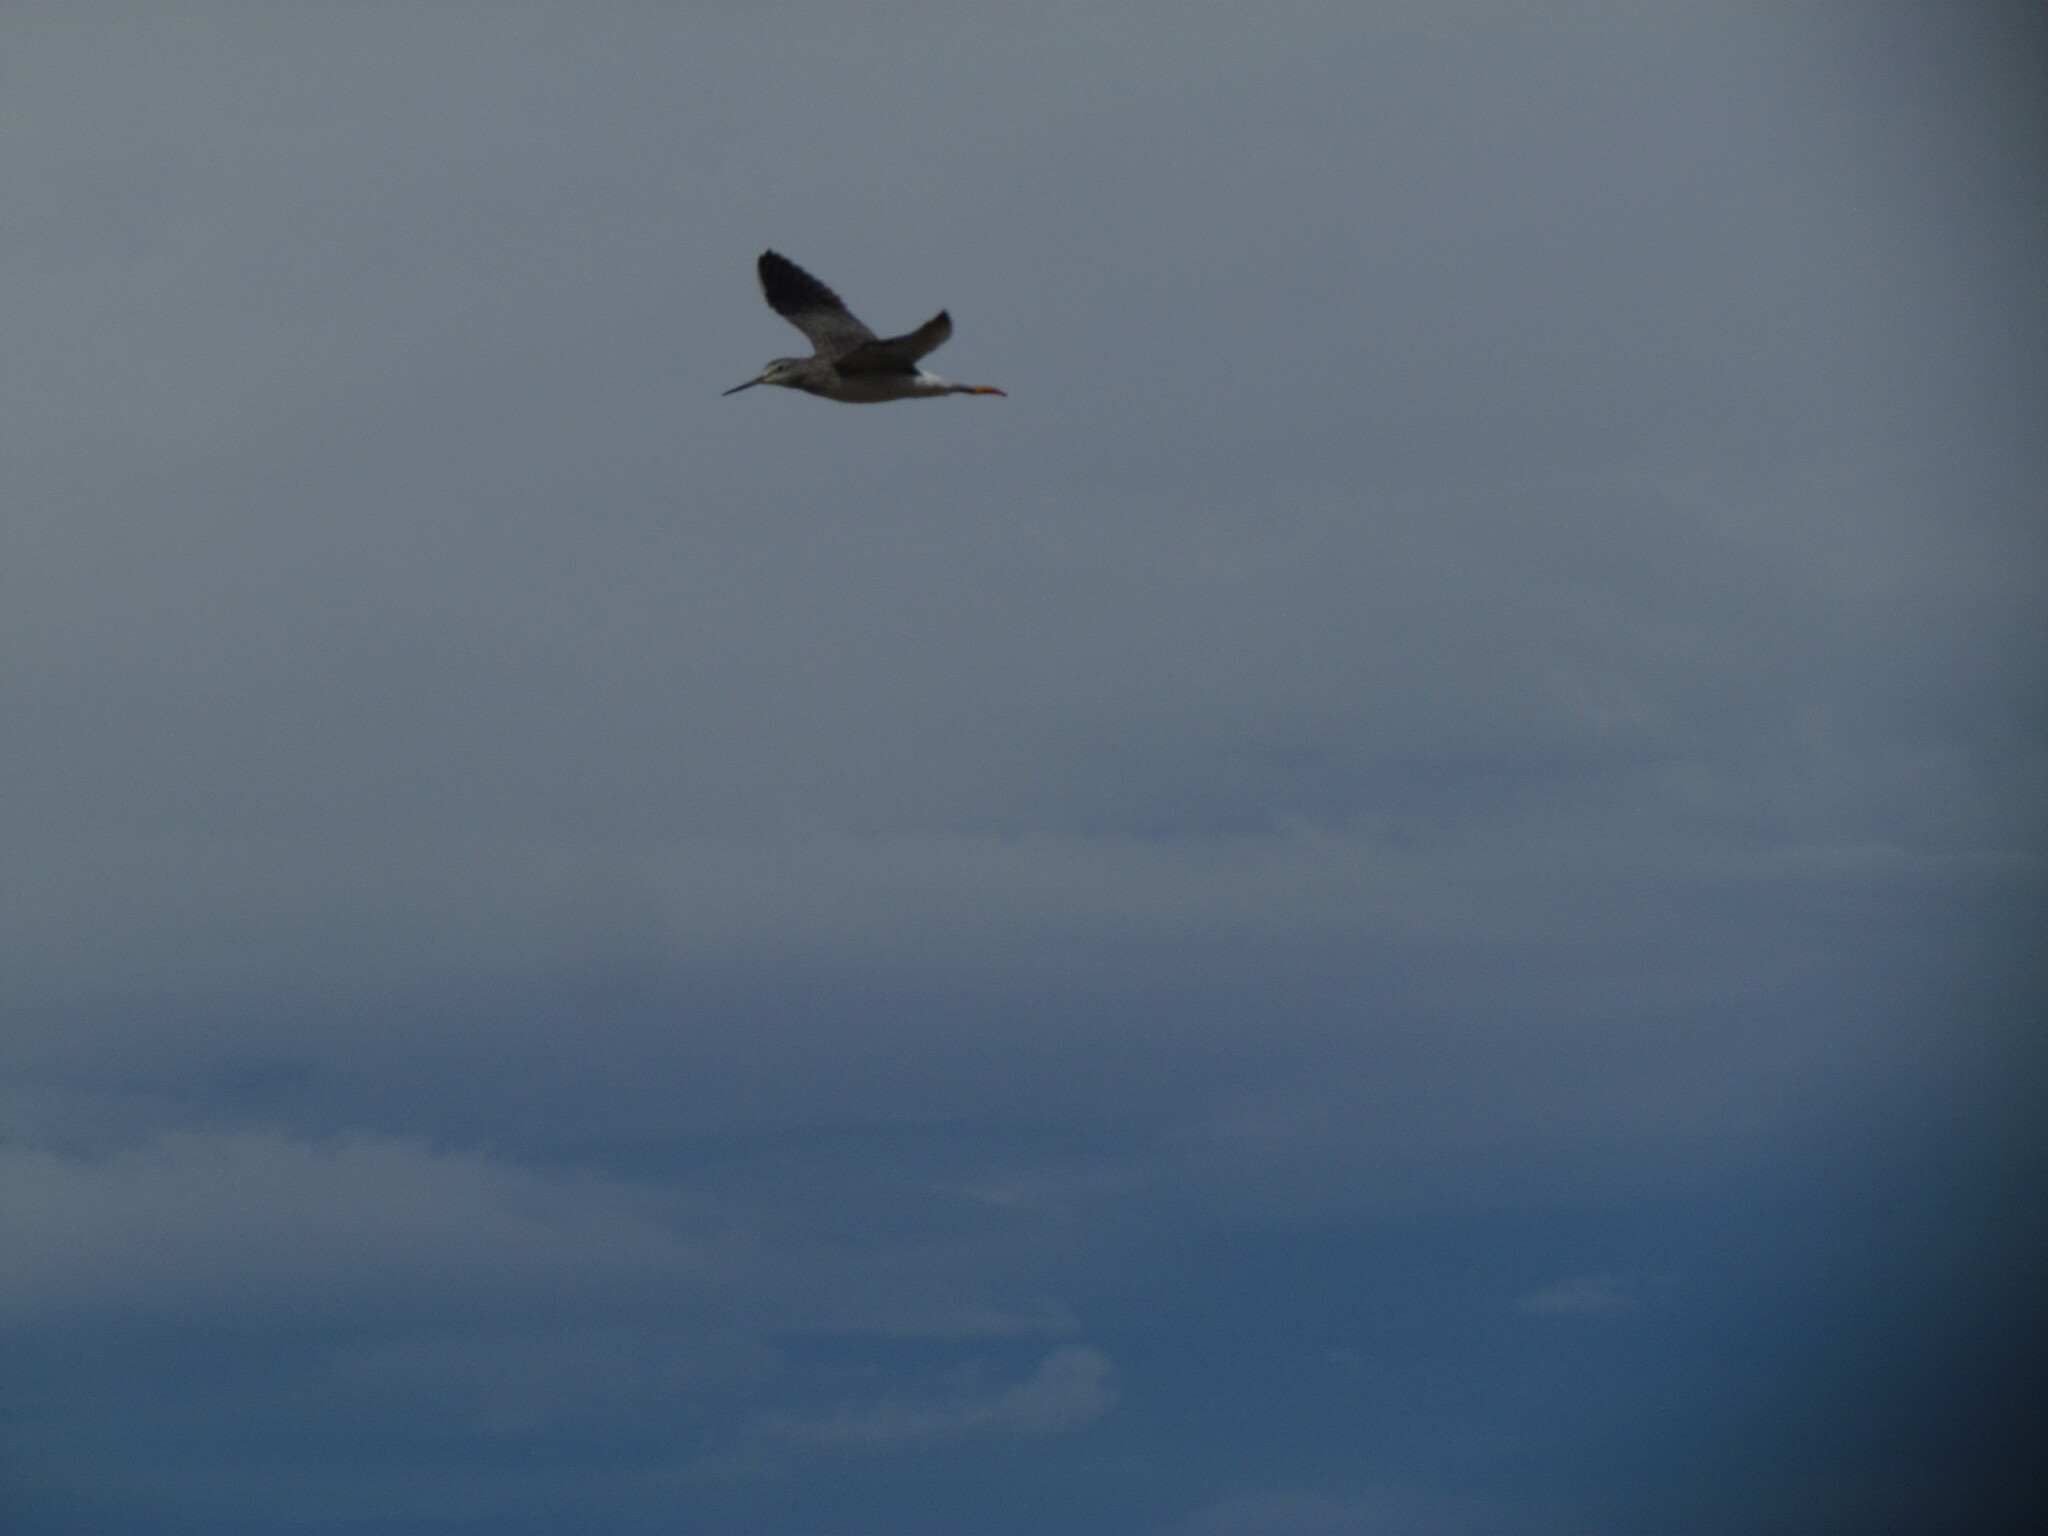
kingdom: Animalia
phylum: Chordata
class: Aves
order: Charadriiformes
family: Scolopacidae
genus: Tringa
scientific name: Tringa melanoleuca
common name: Greater yellowlegs
